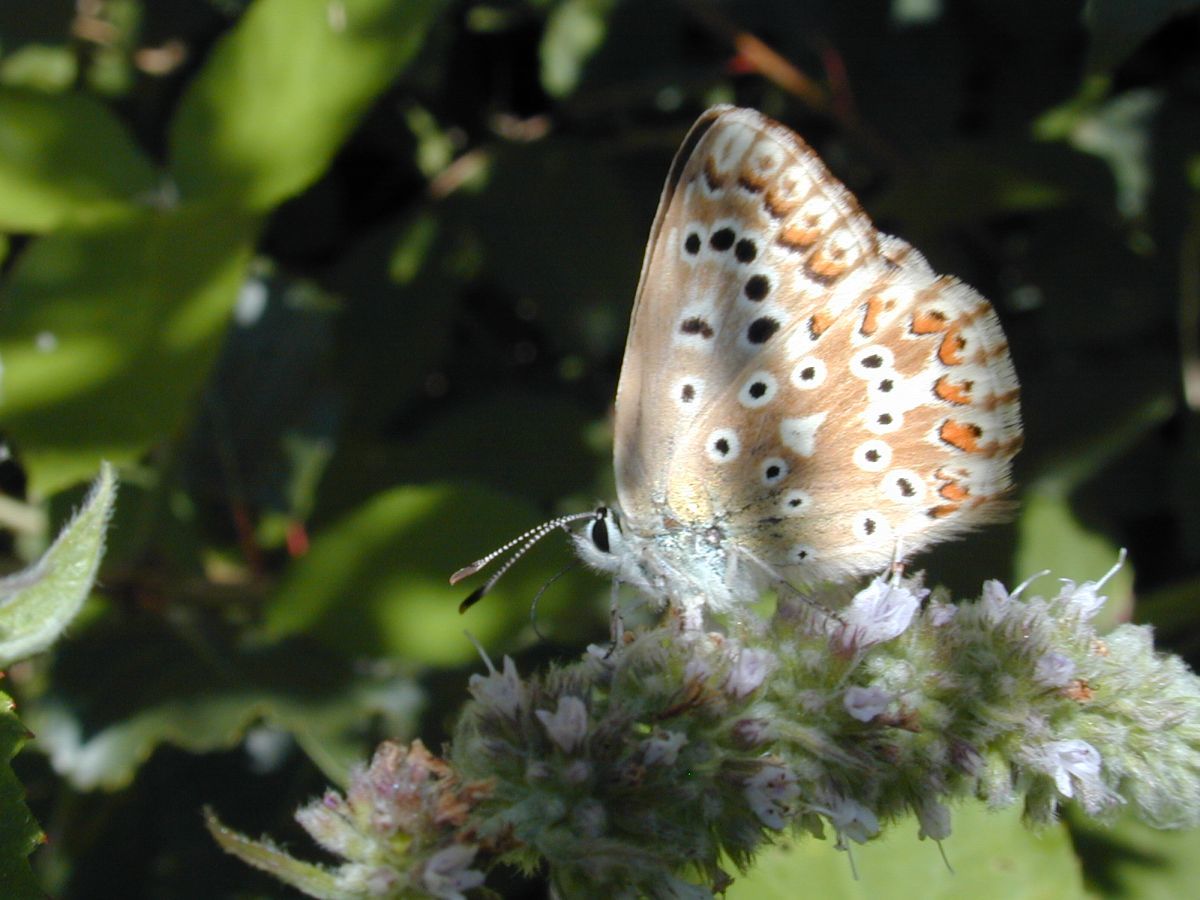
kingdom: Animalia
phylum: Arthropoda
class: Insecta
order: Lepidoptera
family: Lycaenidae
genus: Lysandra
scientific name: Lysandra coridon
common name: Chalkhill blue
